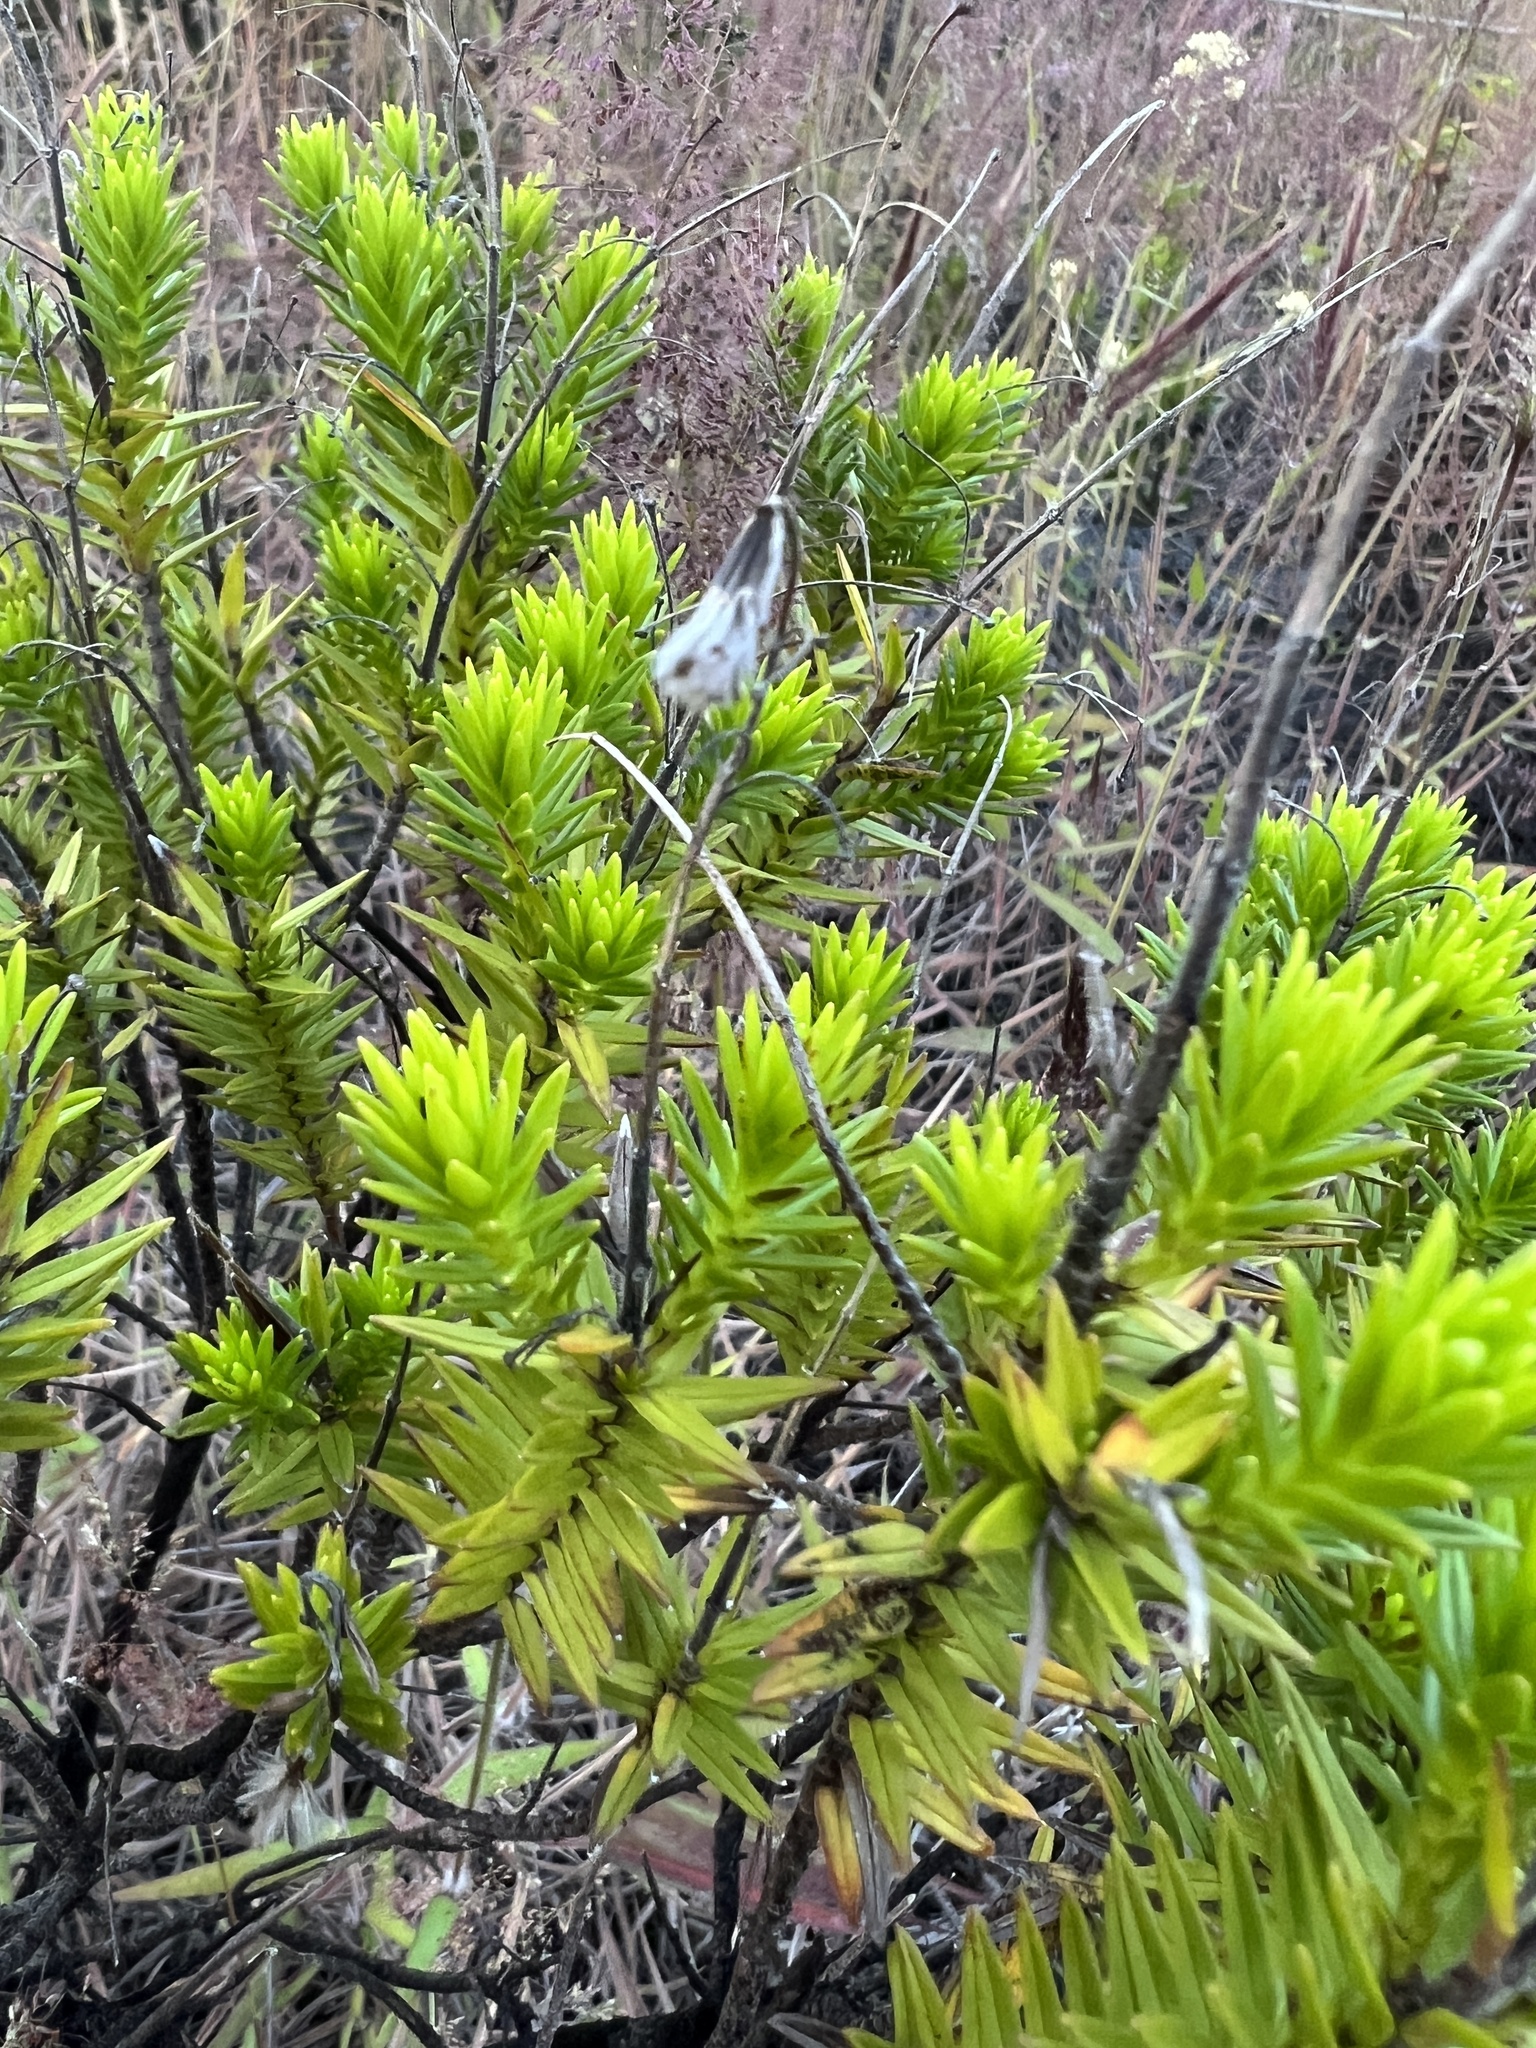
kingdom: Plantae
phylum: Tracheophyta
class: Magnoliopsida
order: Asterales
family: Asteraceae
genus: Dubautia
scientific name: Dubautia ciliolata
